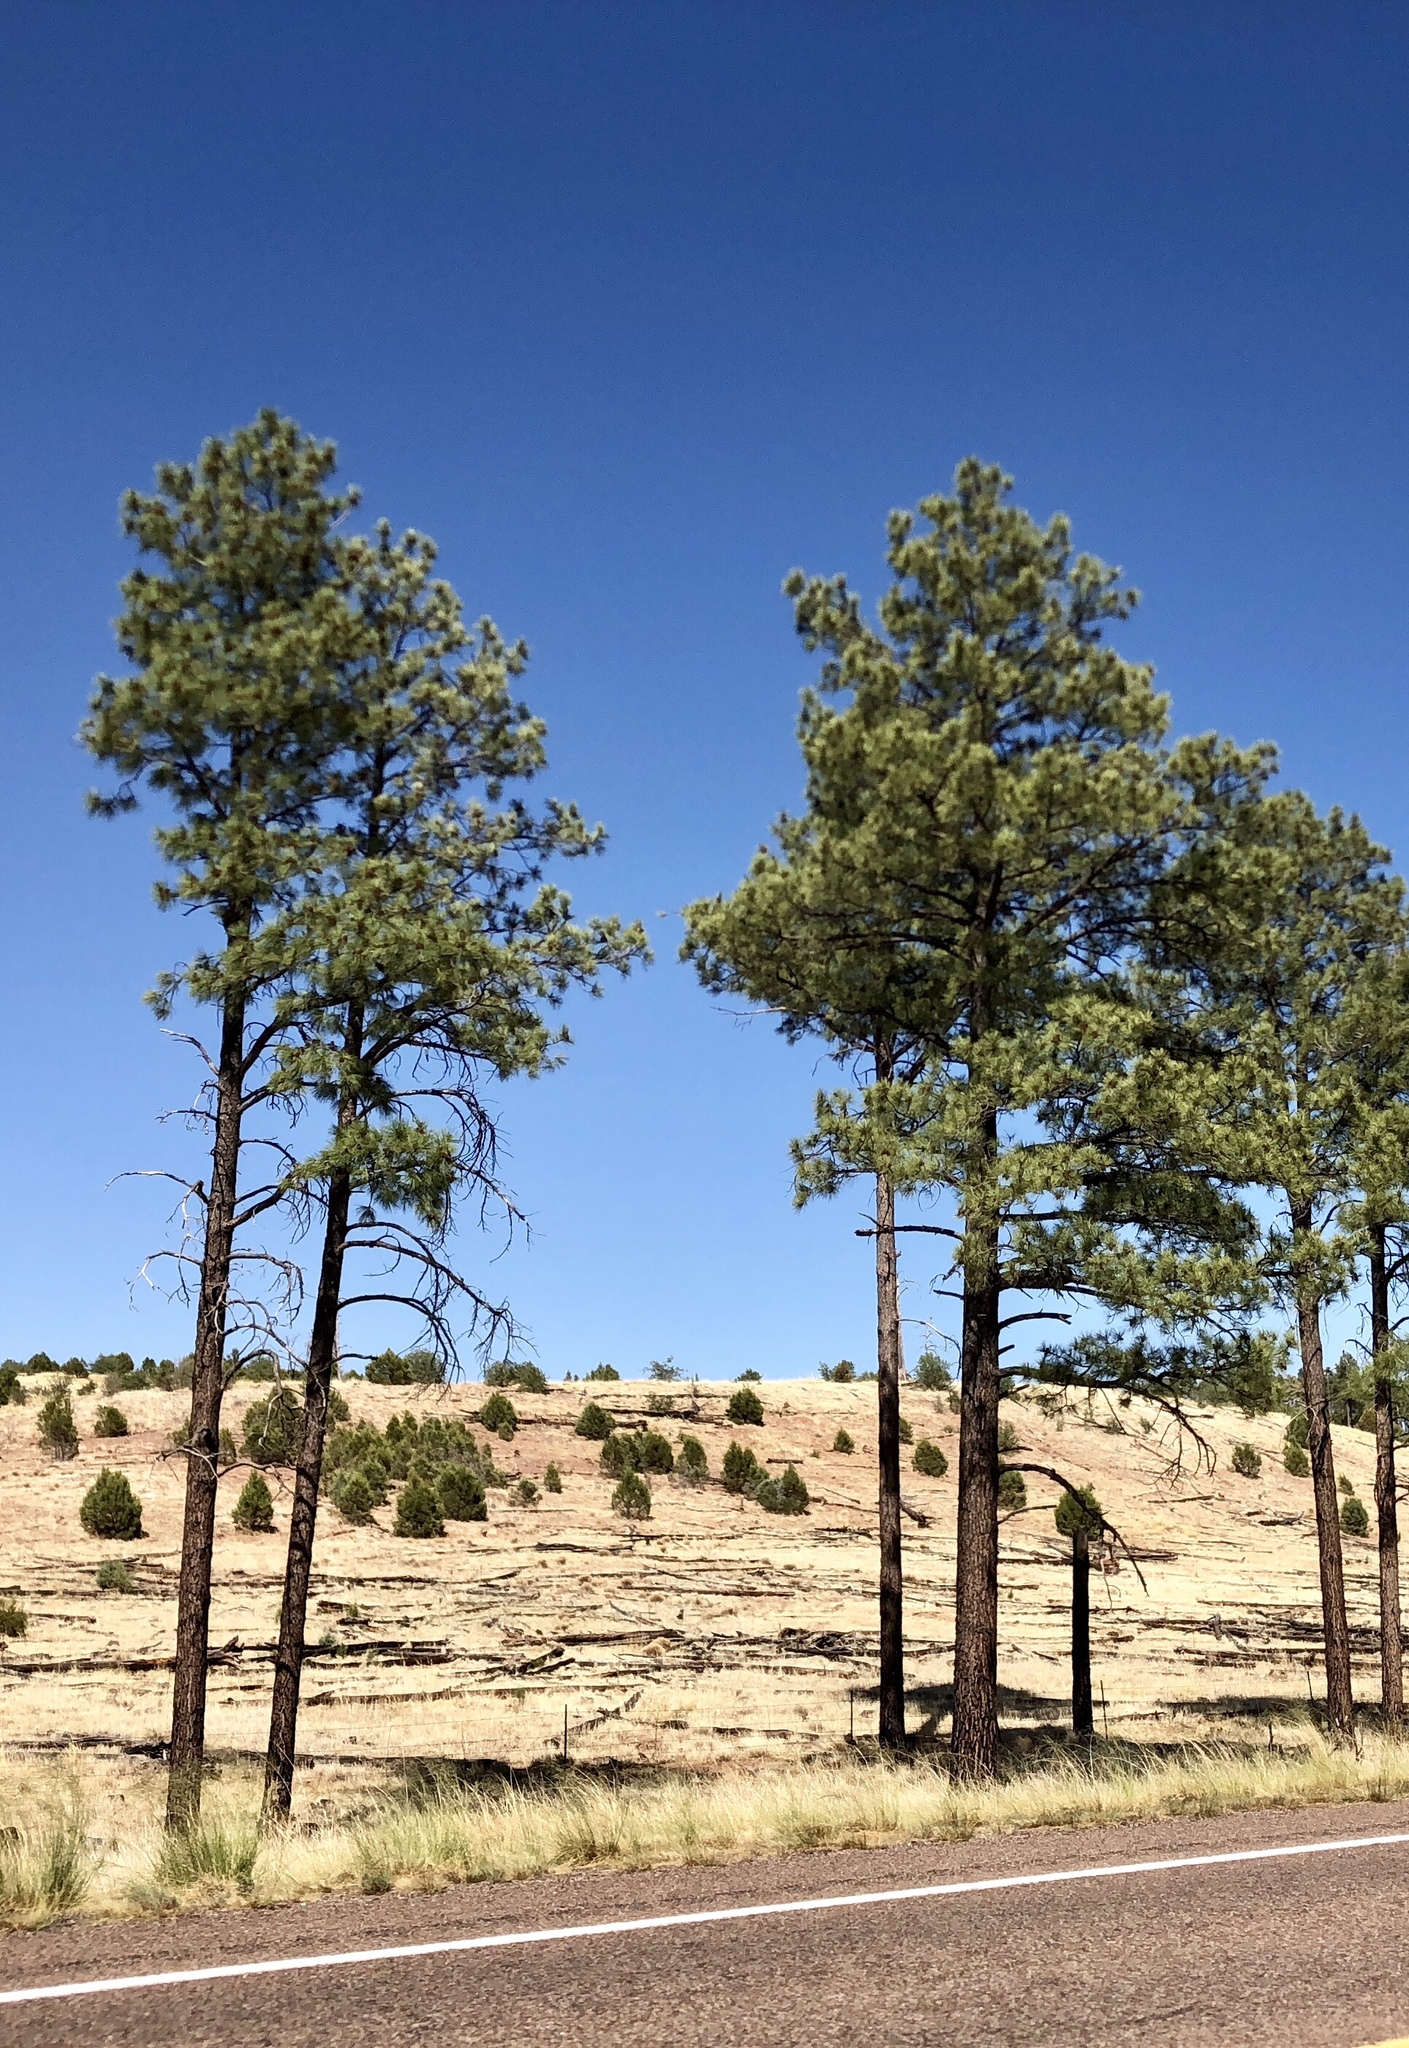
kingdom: Plantae
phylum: Tracheophyta
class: Pinopsida
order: Pinales
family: Pinaceae
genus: Pinus
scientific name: Pinus ponderosa
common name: Western yellow-pine
